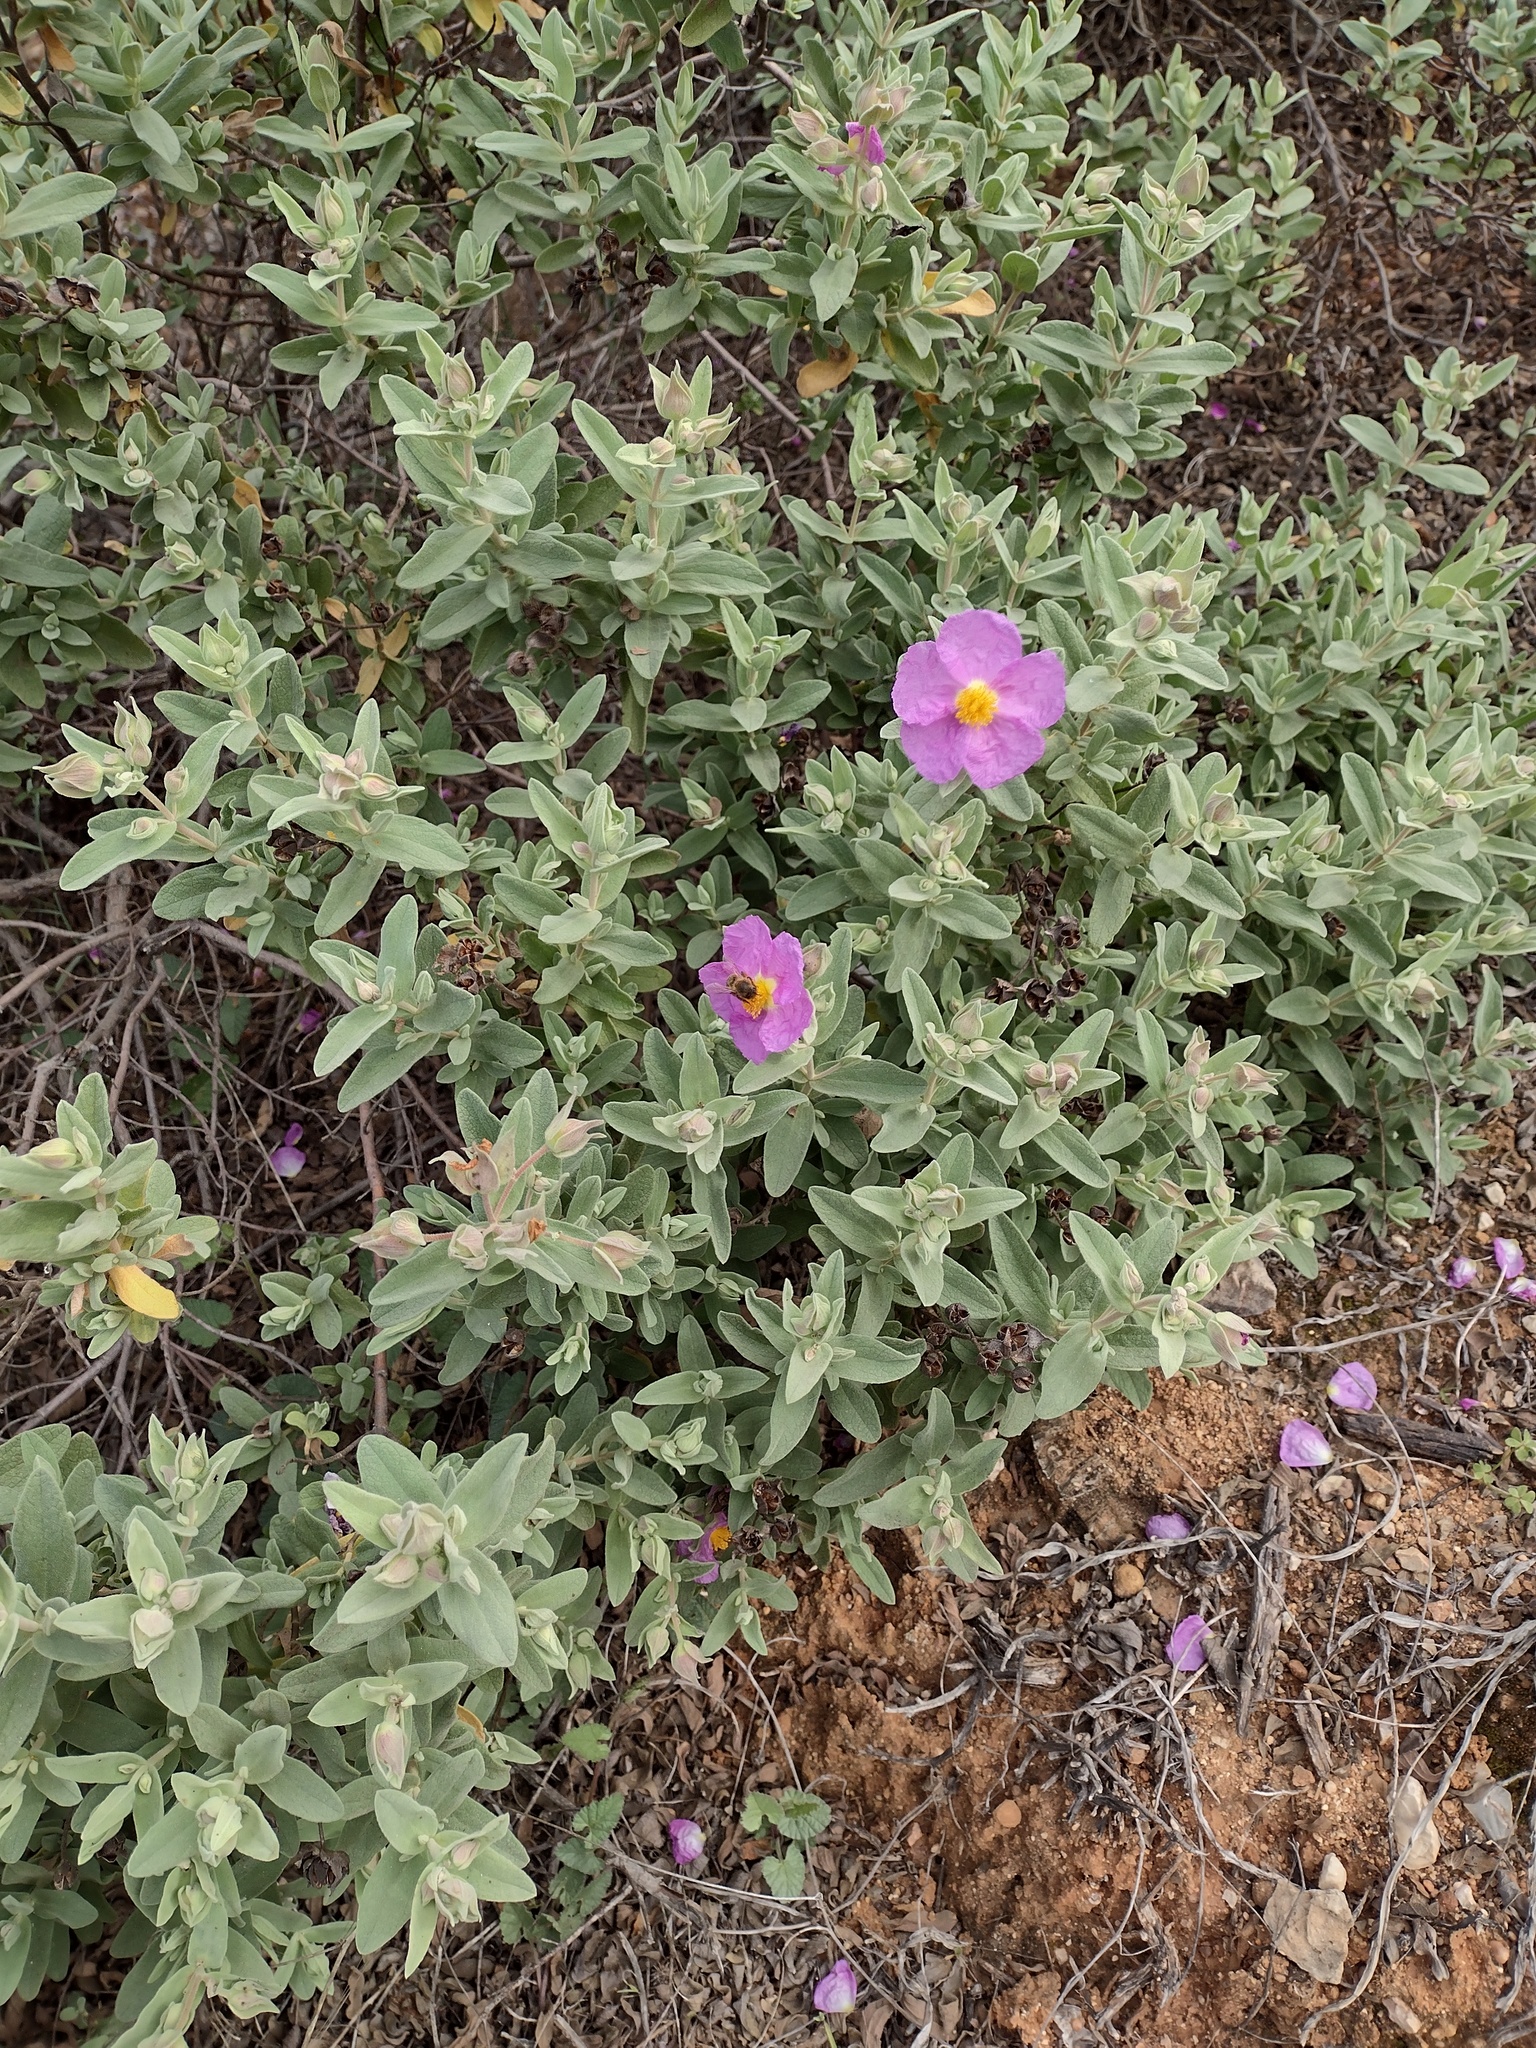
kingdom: Plantae
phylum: Tracheophyta
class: Magnoliopsida
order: Malvales
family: Cistaceae
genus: Cistus
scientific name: Cistus albidus
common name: White-leaf rock-rose
